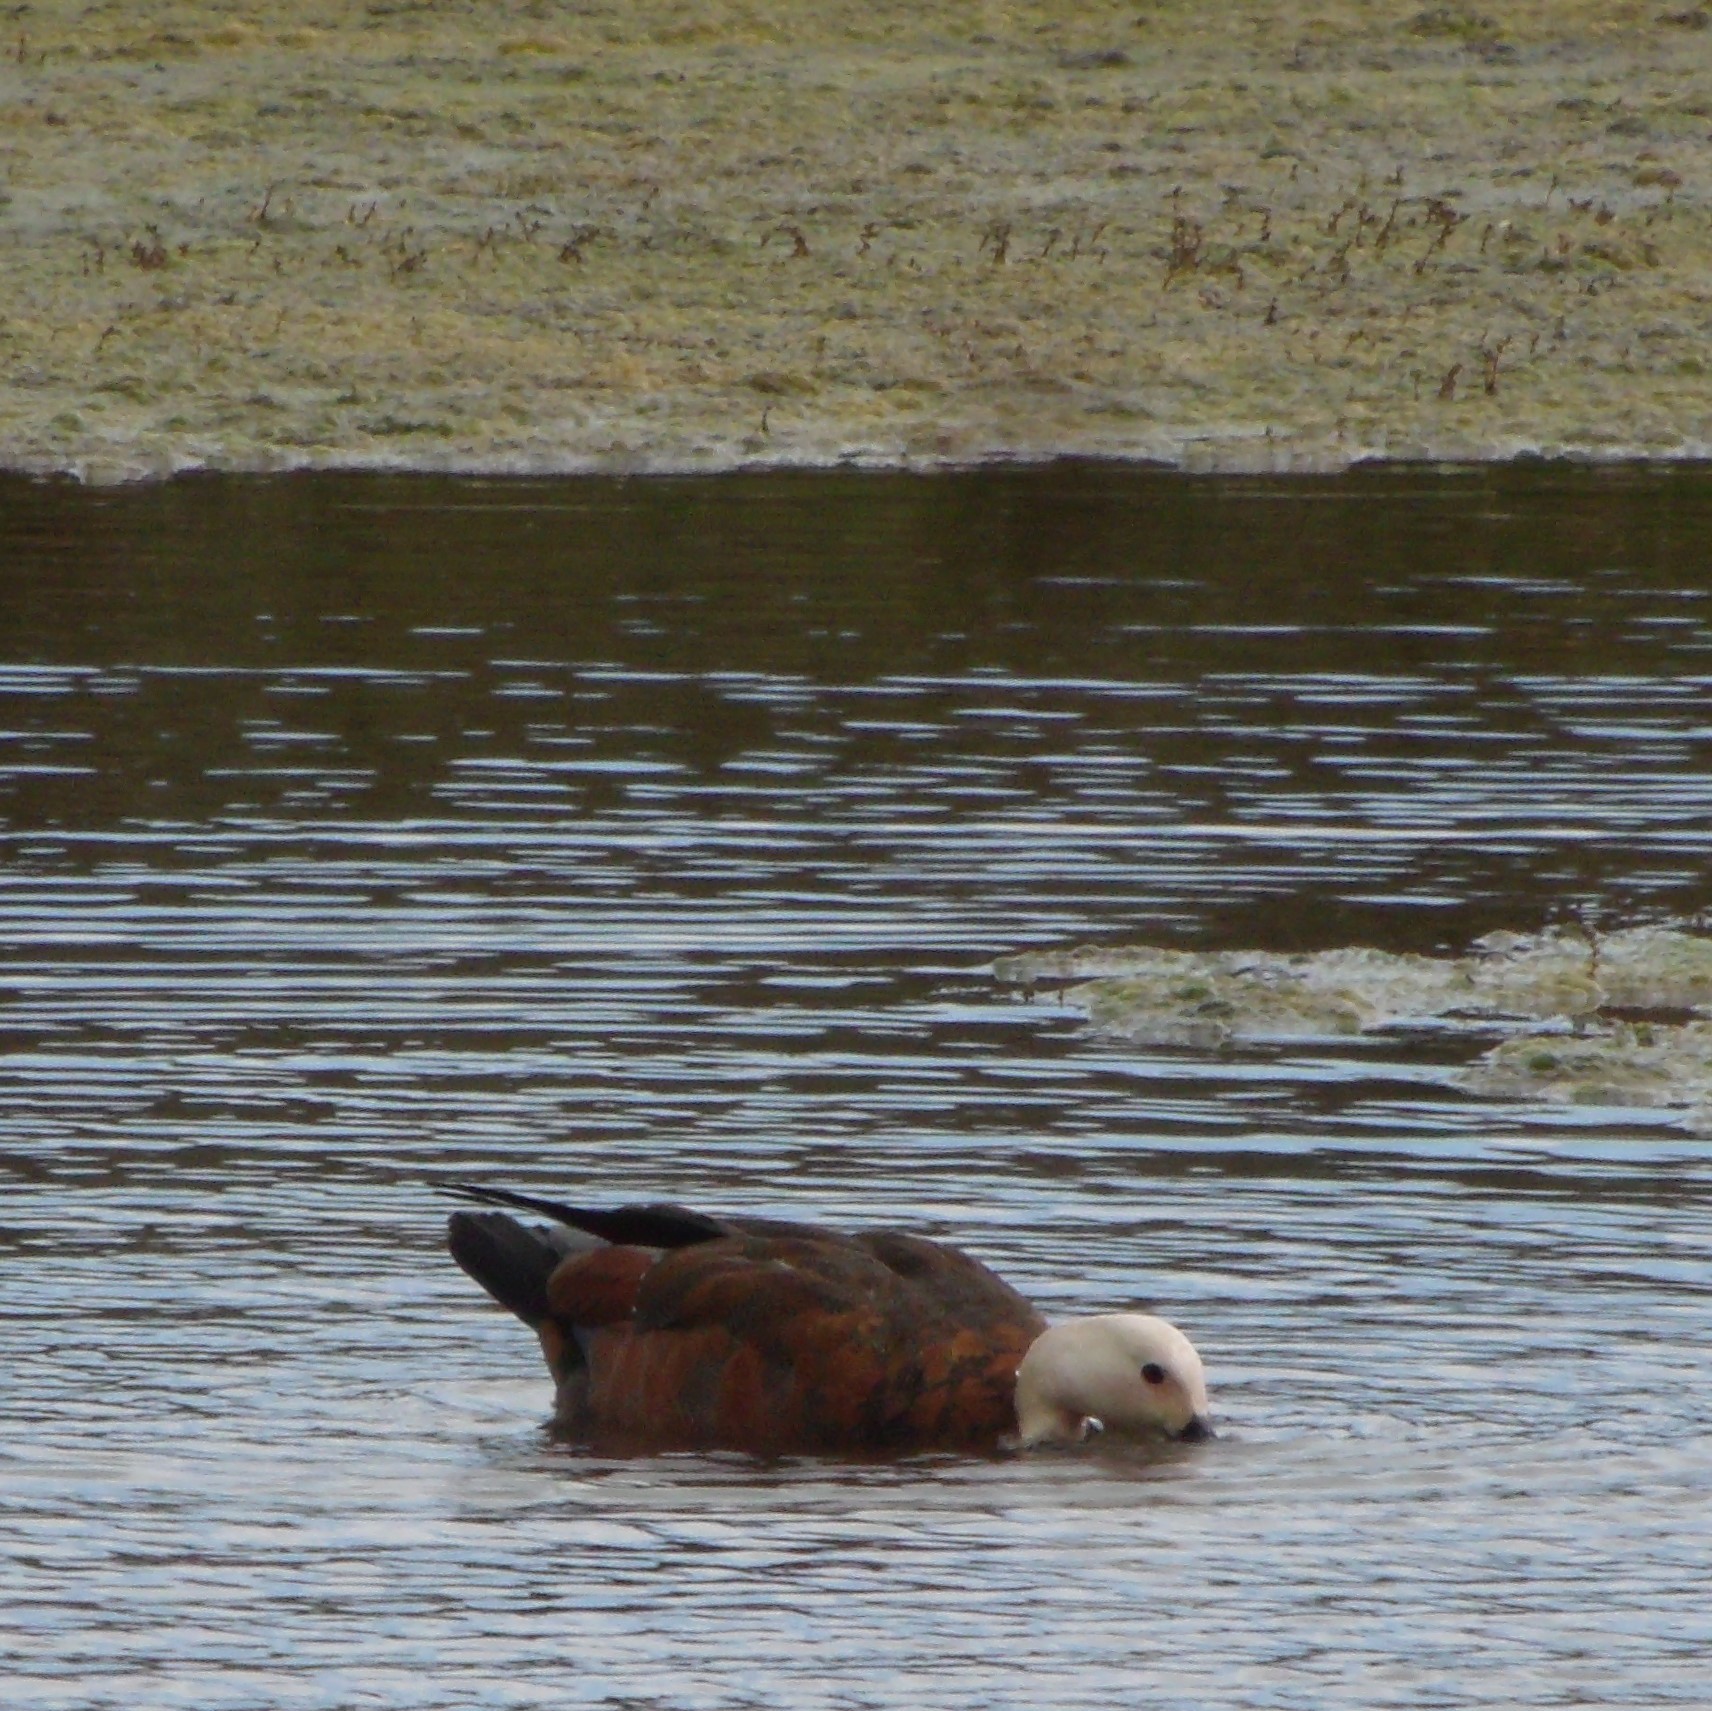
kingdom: Animalia
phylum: Chordata
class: Aves
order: Anseriformes
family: Anatidae
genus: Tadorna
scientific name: Tadorna variegata
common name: Paradise shelduck
